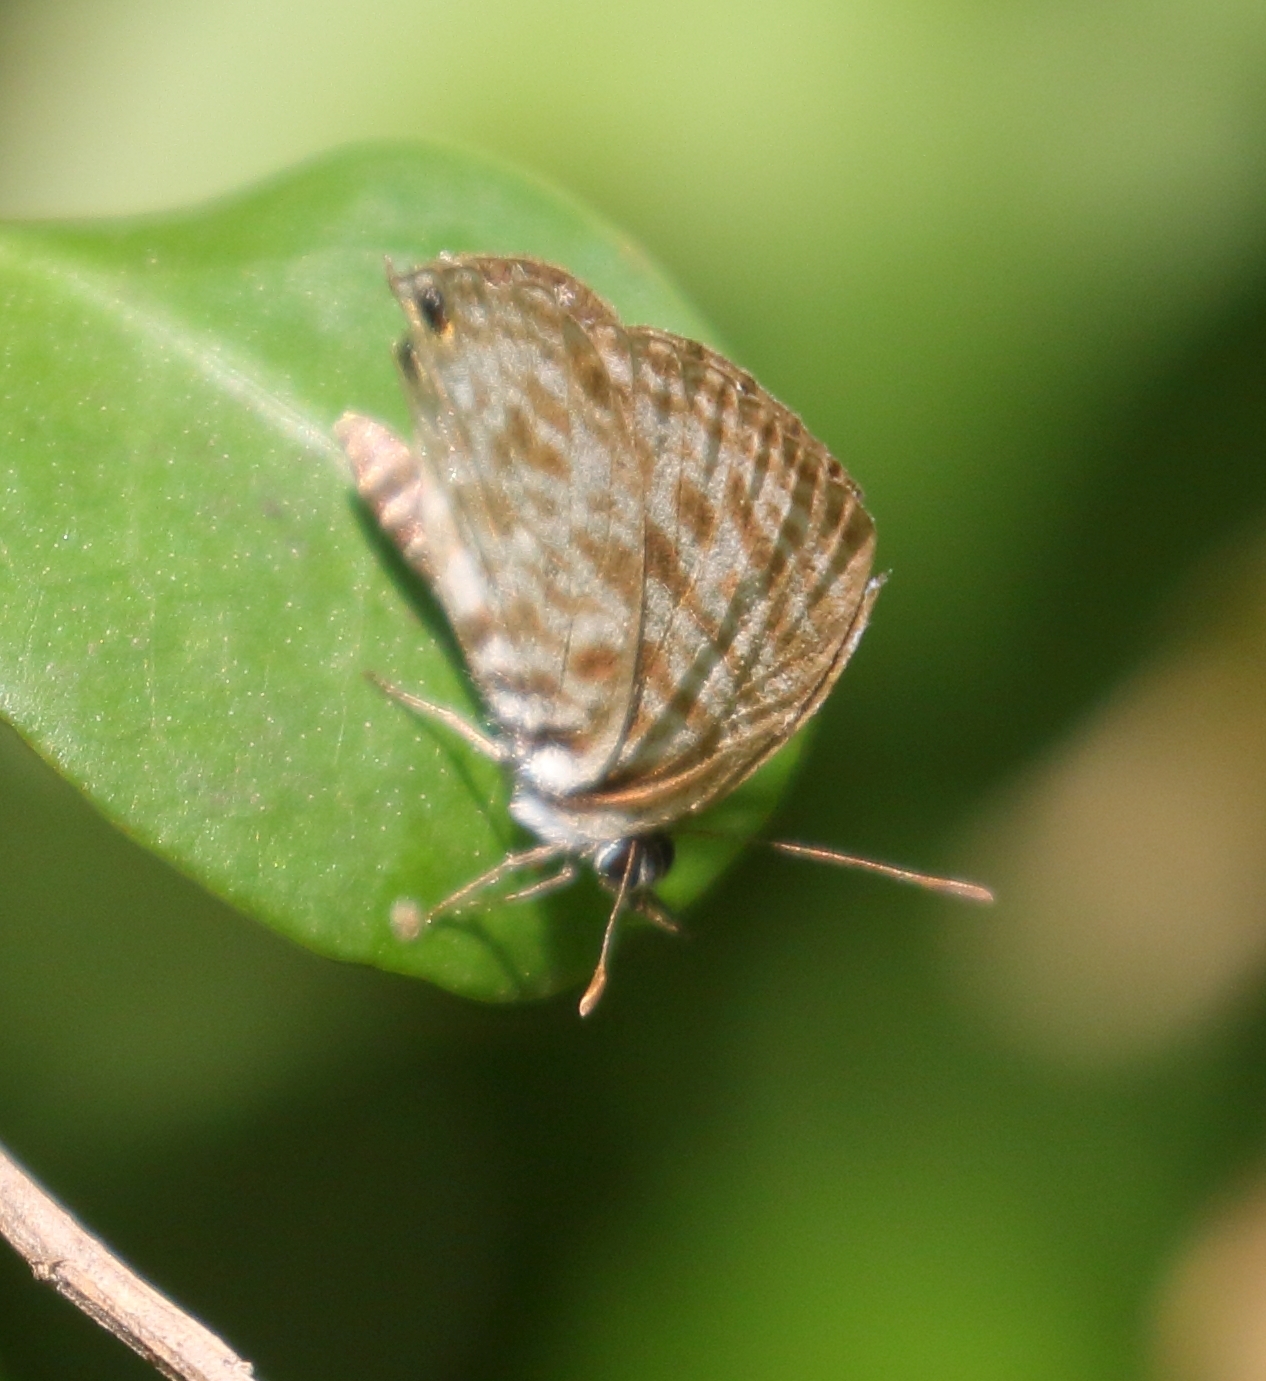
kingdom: Animalia
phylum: Arthropoda
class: Insecta
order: Lepidoptera
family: Lycaenidae
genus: Leptotes
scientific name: Leptotes
